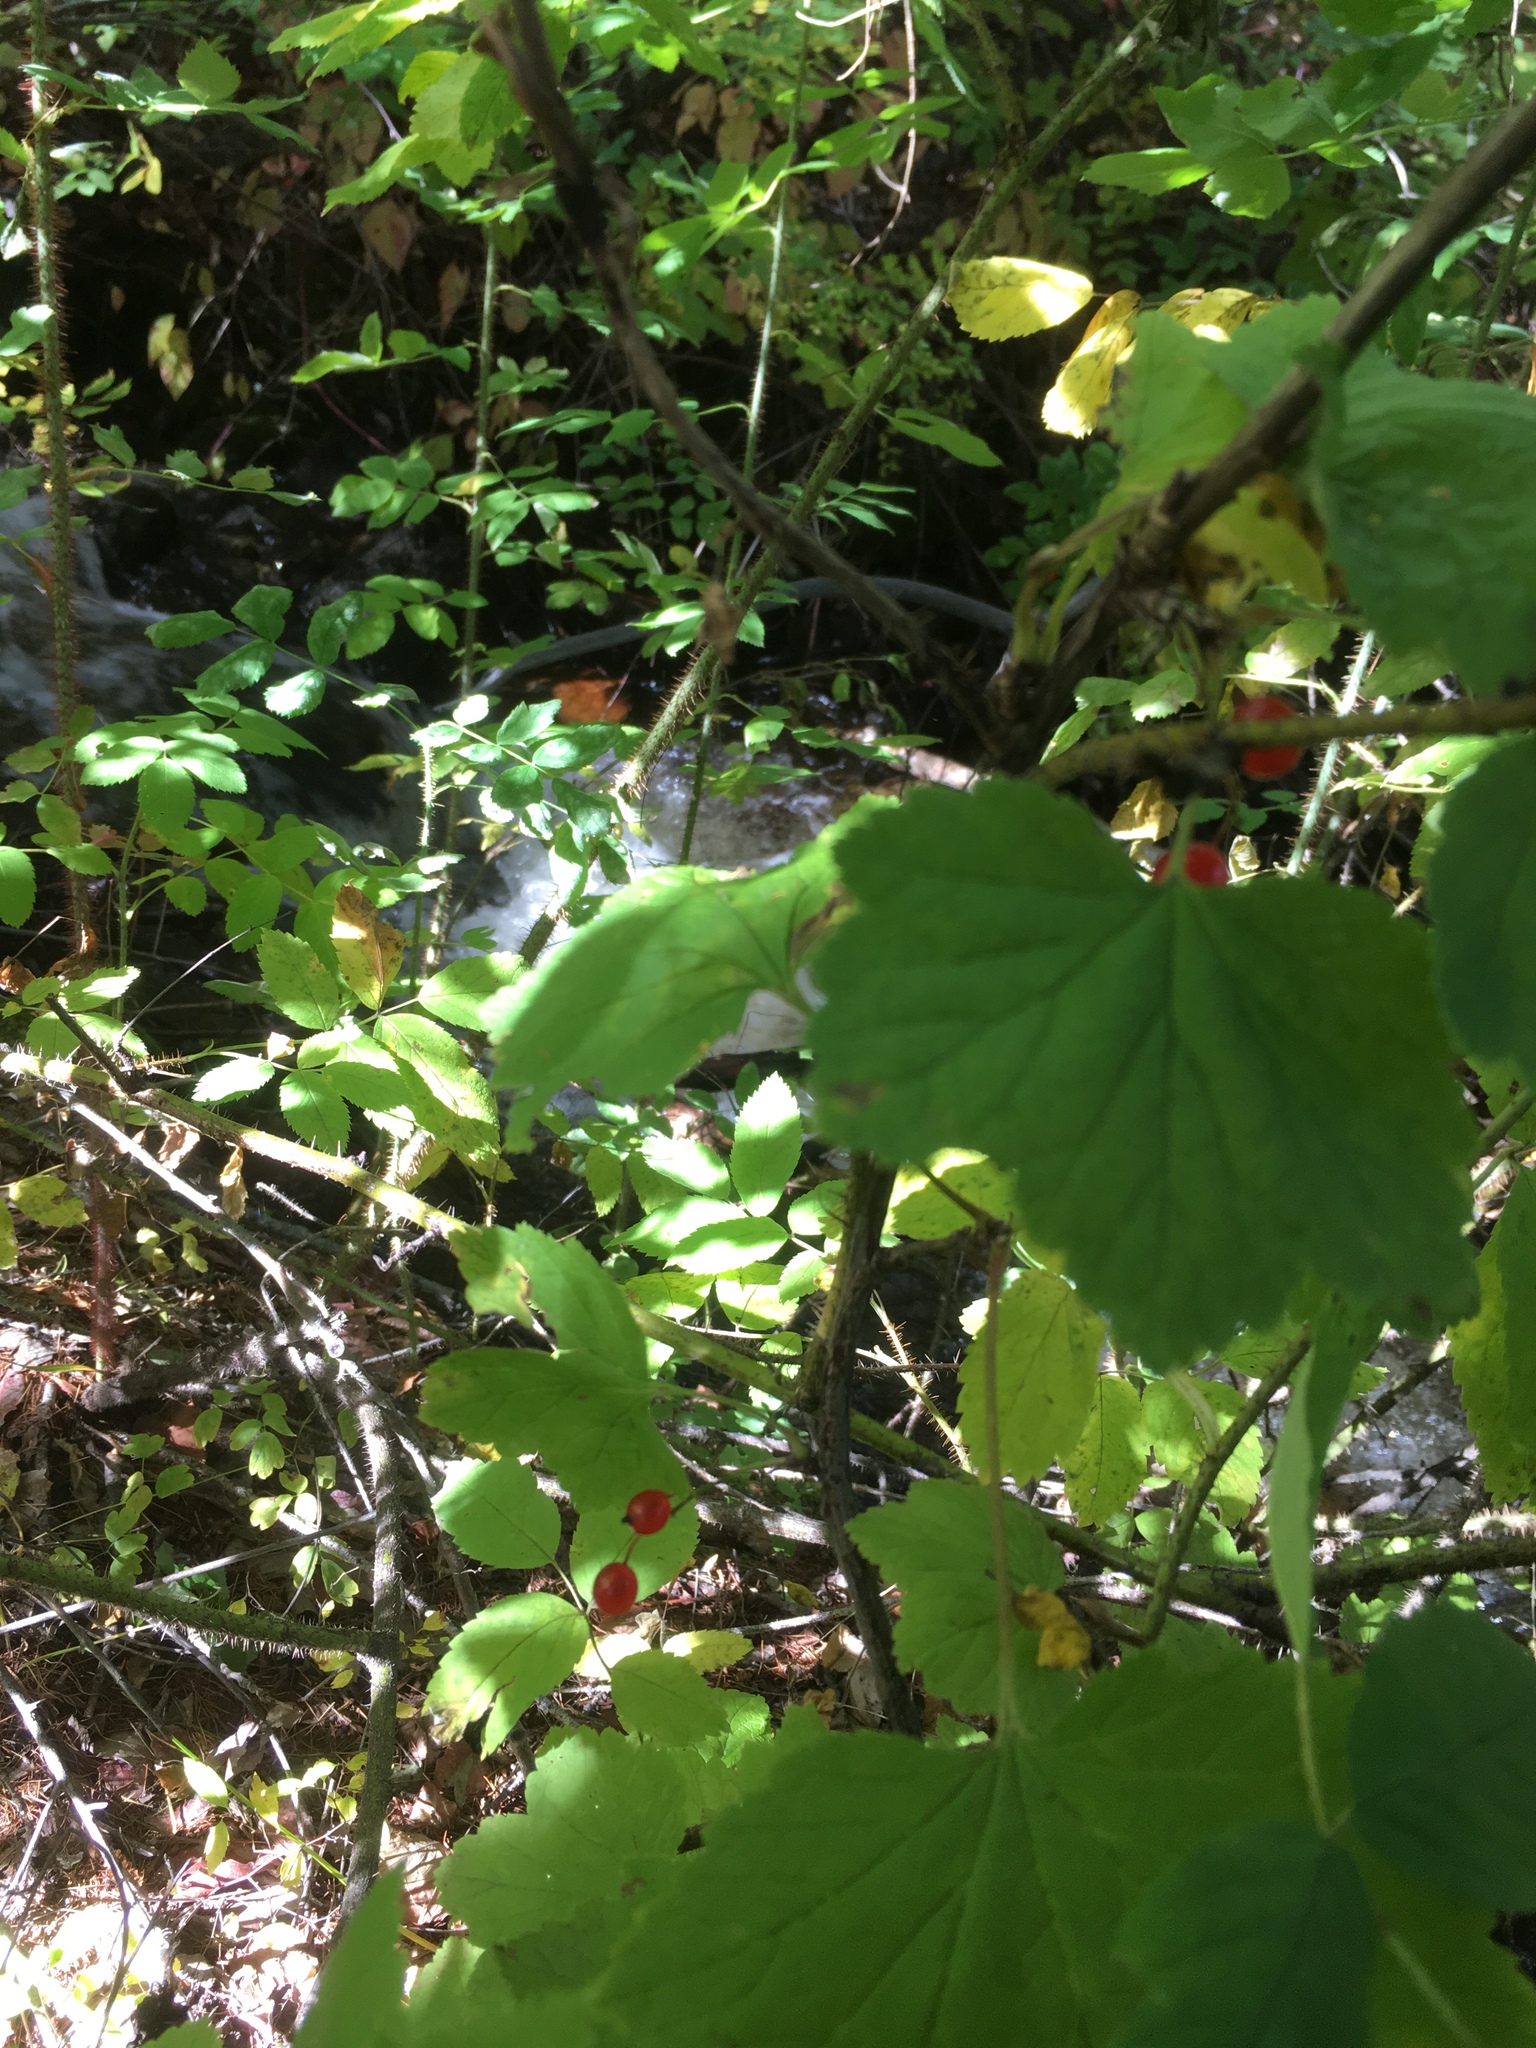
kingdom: Plantae
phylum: Tracheophyta
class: Magnoliopsida
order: Saxifragales
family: Grossulariaceae
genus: Ribes
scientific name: Ribes spicatum
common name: Downy currant
